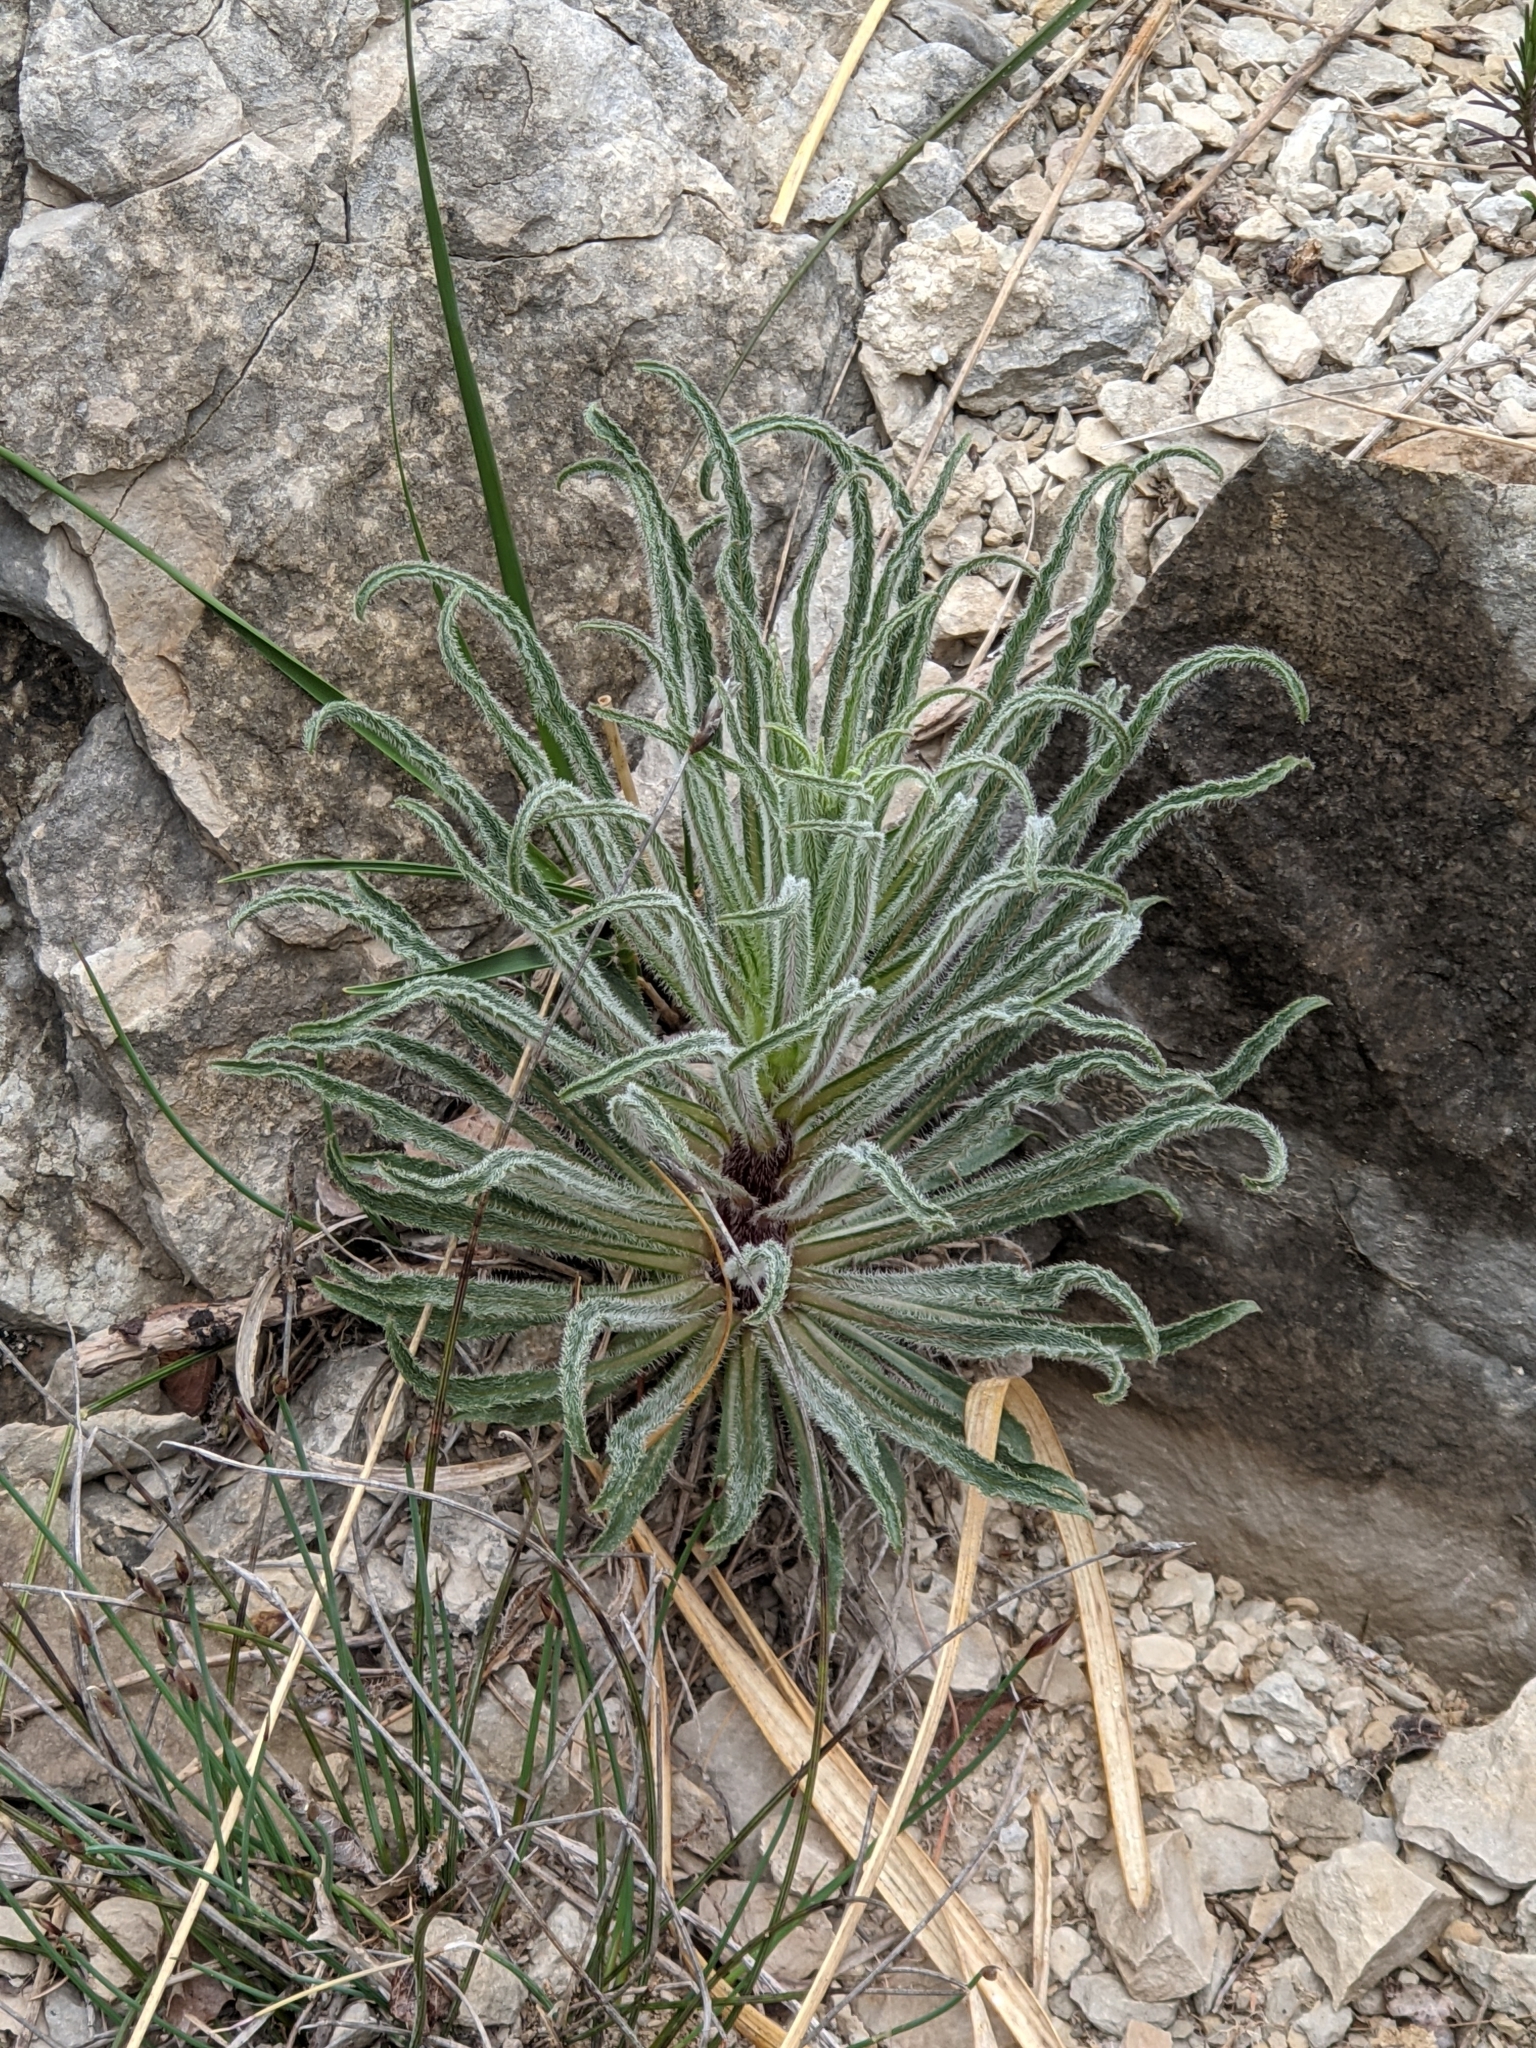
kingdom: Plantae
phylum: Tracheophyta
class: Magnoliopsida
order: Asterales
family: Campanulaceae
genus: Campanula
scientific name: Campanula speciosa
